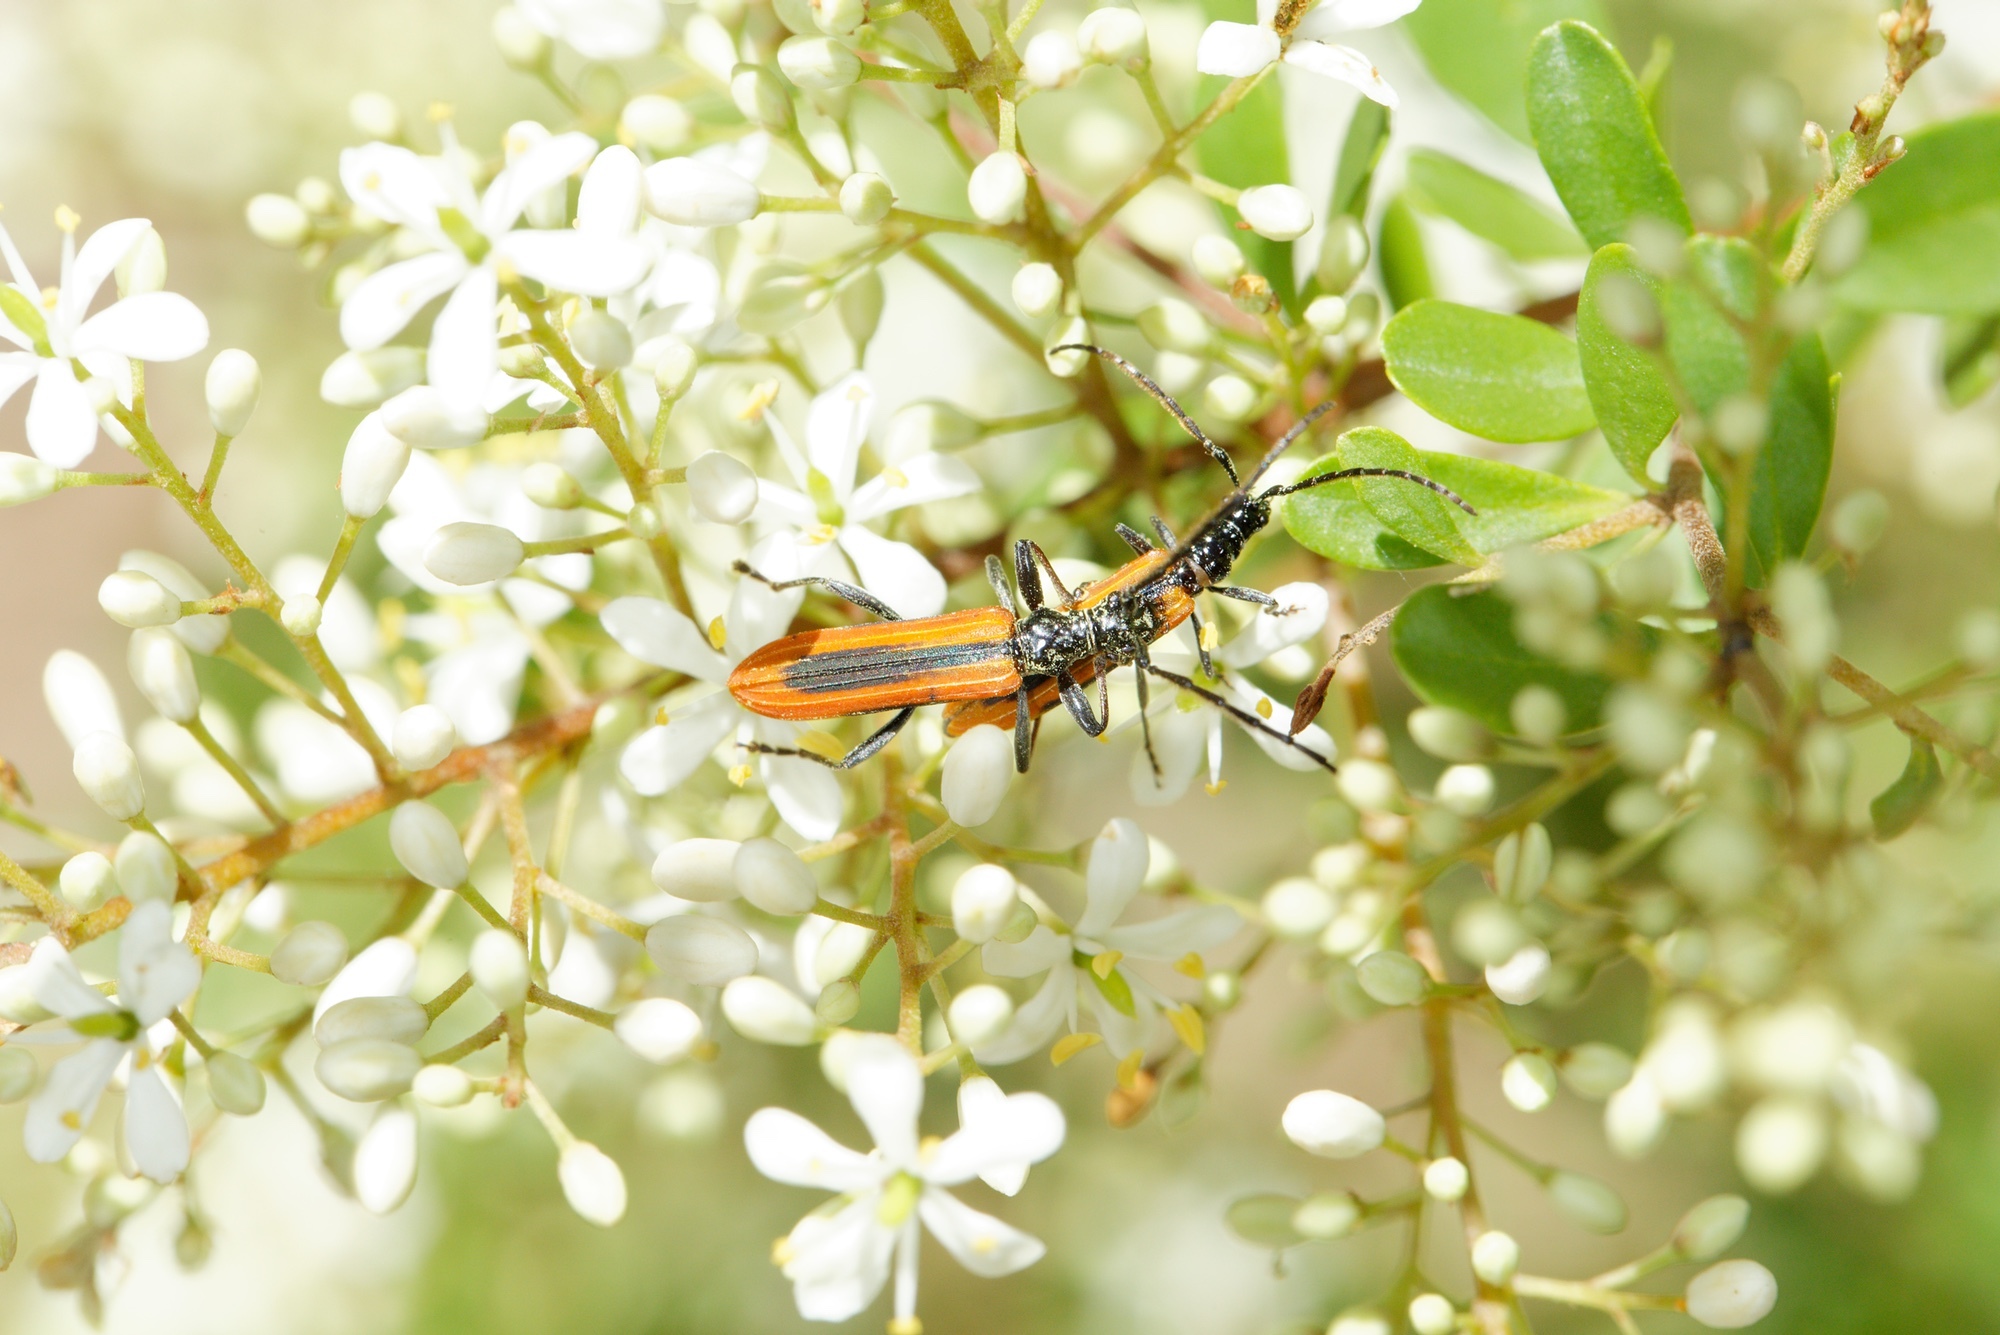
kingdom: Animalia
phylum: Arthropoda
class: Insecta
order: Coleoptera
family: Cerambycidae
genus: Stenoderus
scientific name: Stenoderus suturalis
